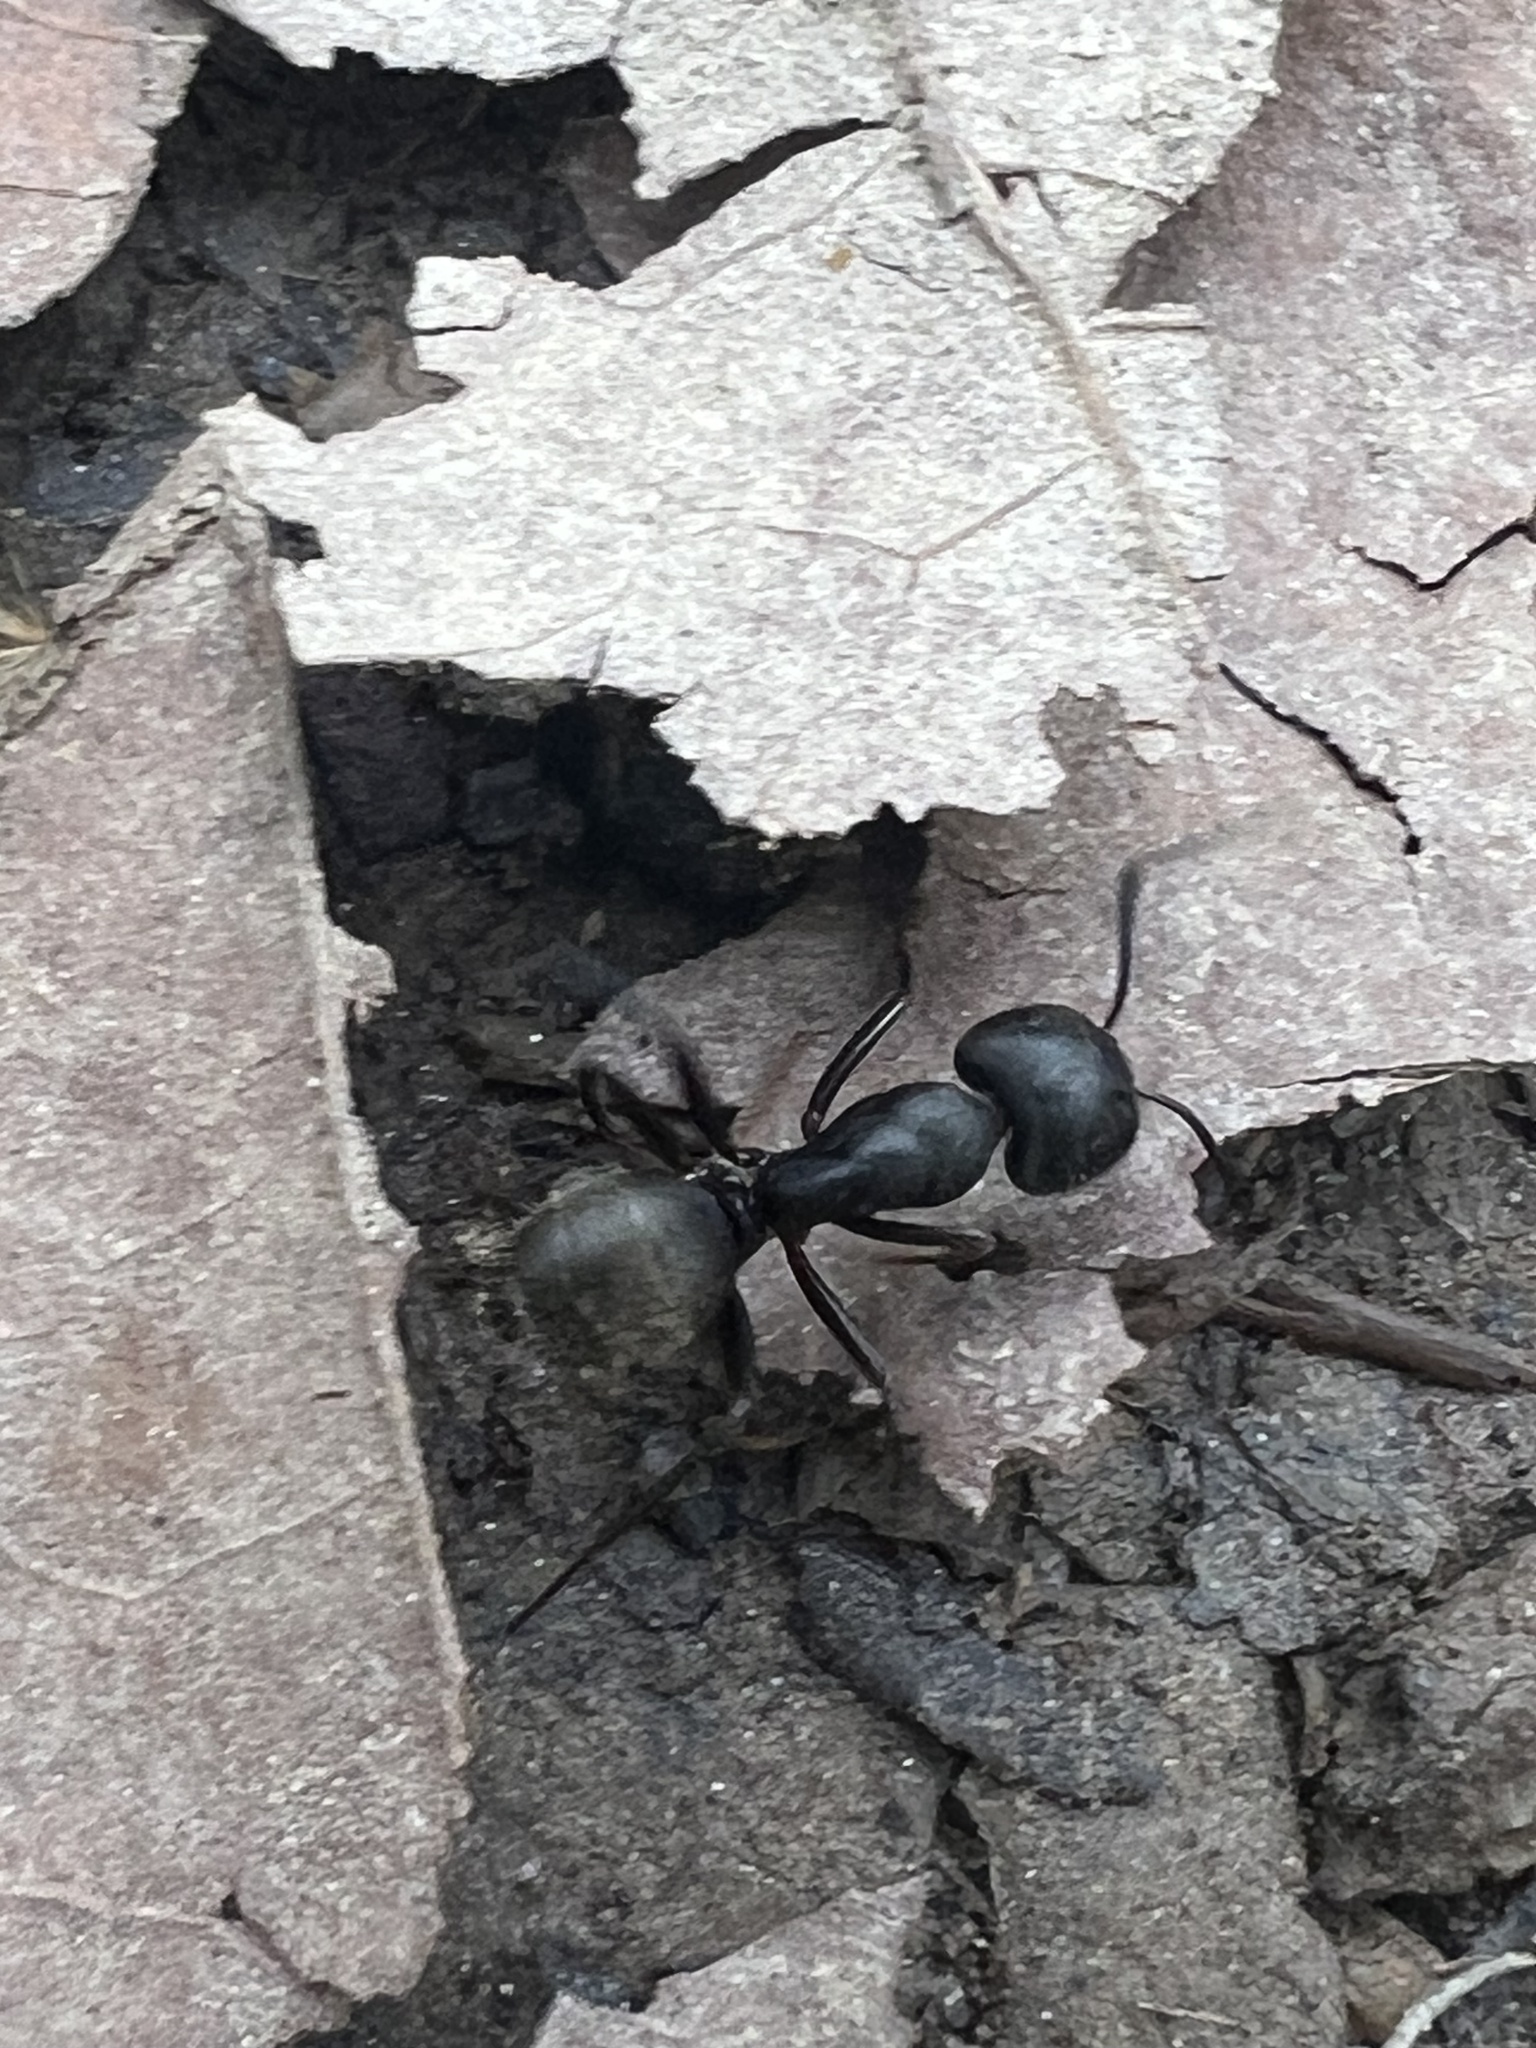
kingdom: Animalia
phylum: Arthropoda
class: Insecta
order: Hymenoptera
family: Formicidae
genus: Camponotus
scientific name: Camponotus pennsylvanicus
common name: Black carpenter ant
